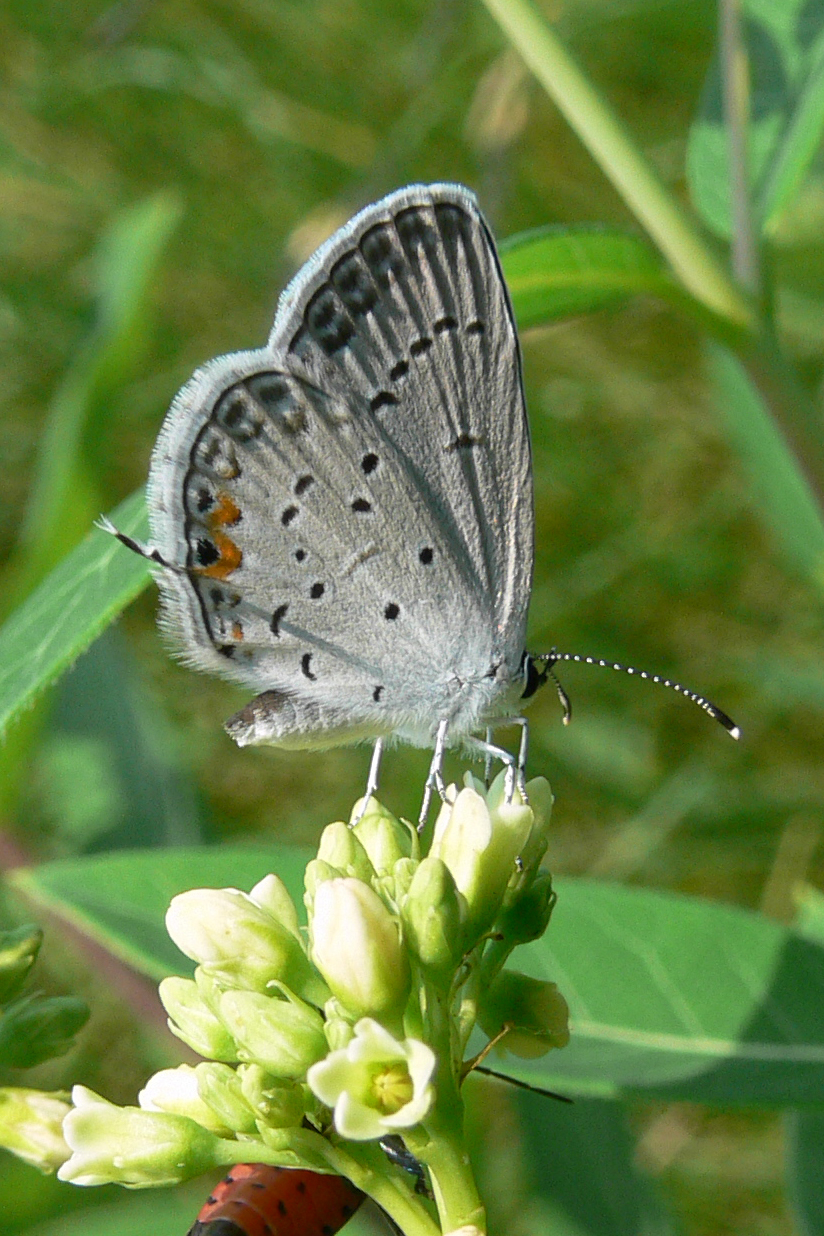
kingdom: Animalia
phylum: Arthropoda
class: Insecta
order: Lepidoptera
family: Lycaenidae
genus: Elkalyce
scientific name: Elkalyce comyntas
